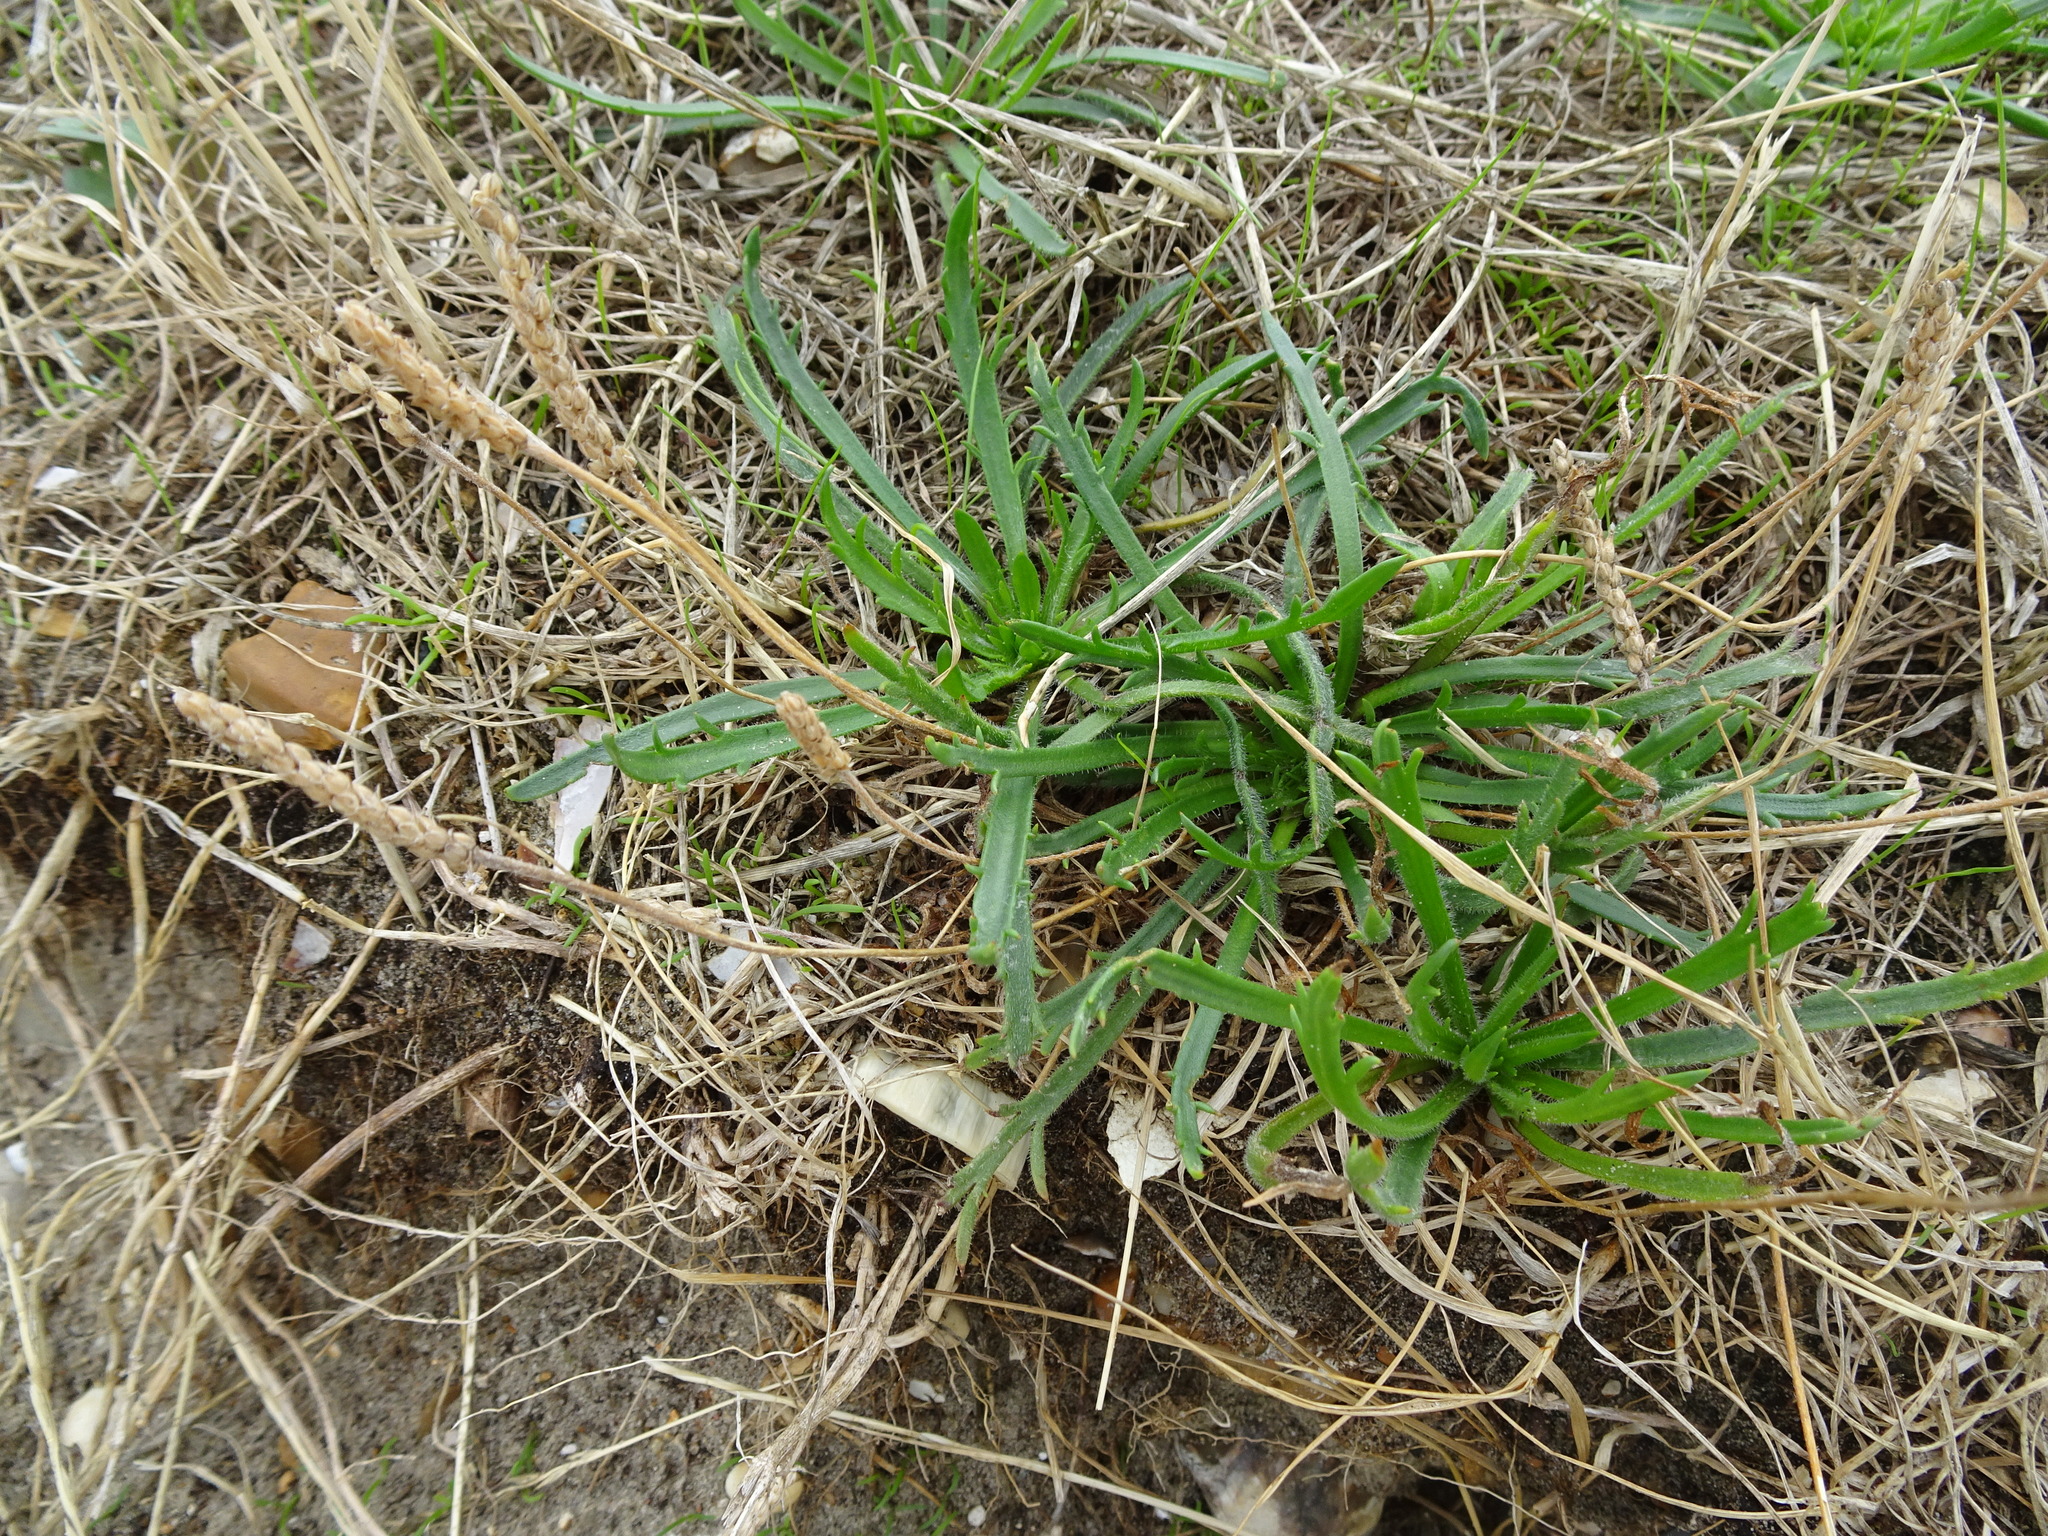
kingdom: Plantae
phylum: Tracheophyta
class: Magnoliopsida
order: Lamiales
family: Plantaginaceae
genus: Plantago
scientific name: Plantago coronopus
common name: Buck's-horn plantain
